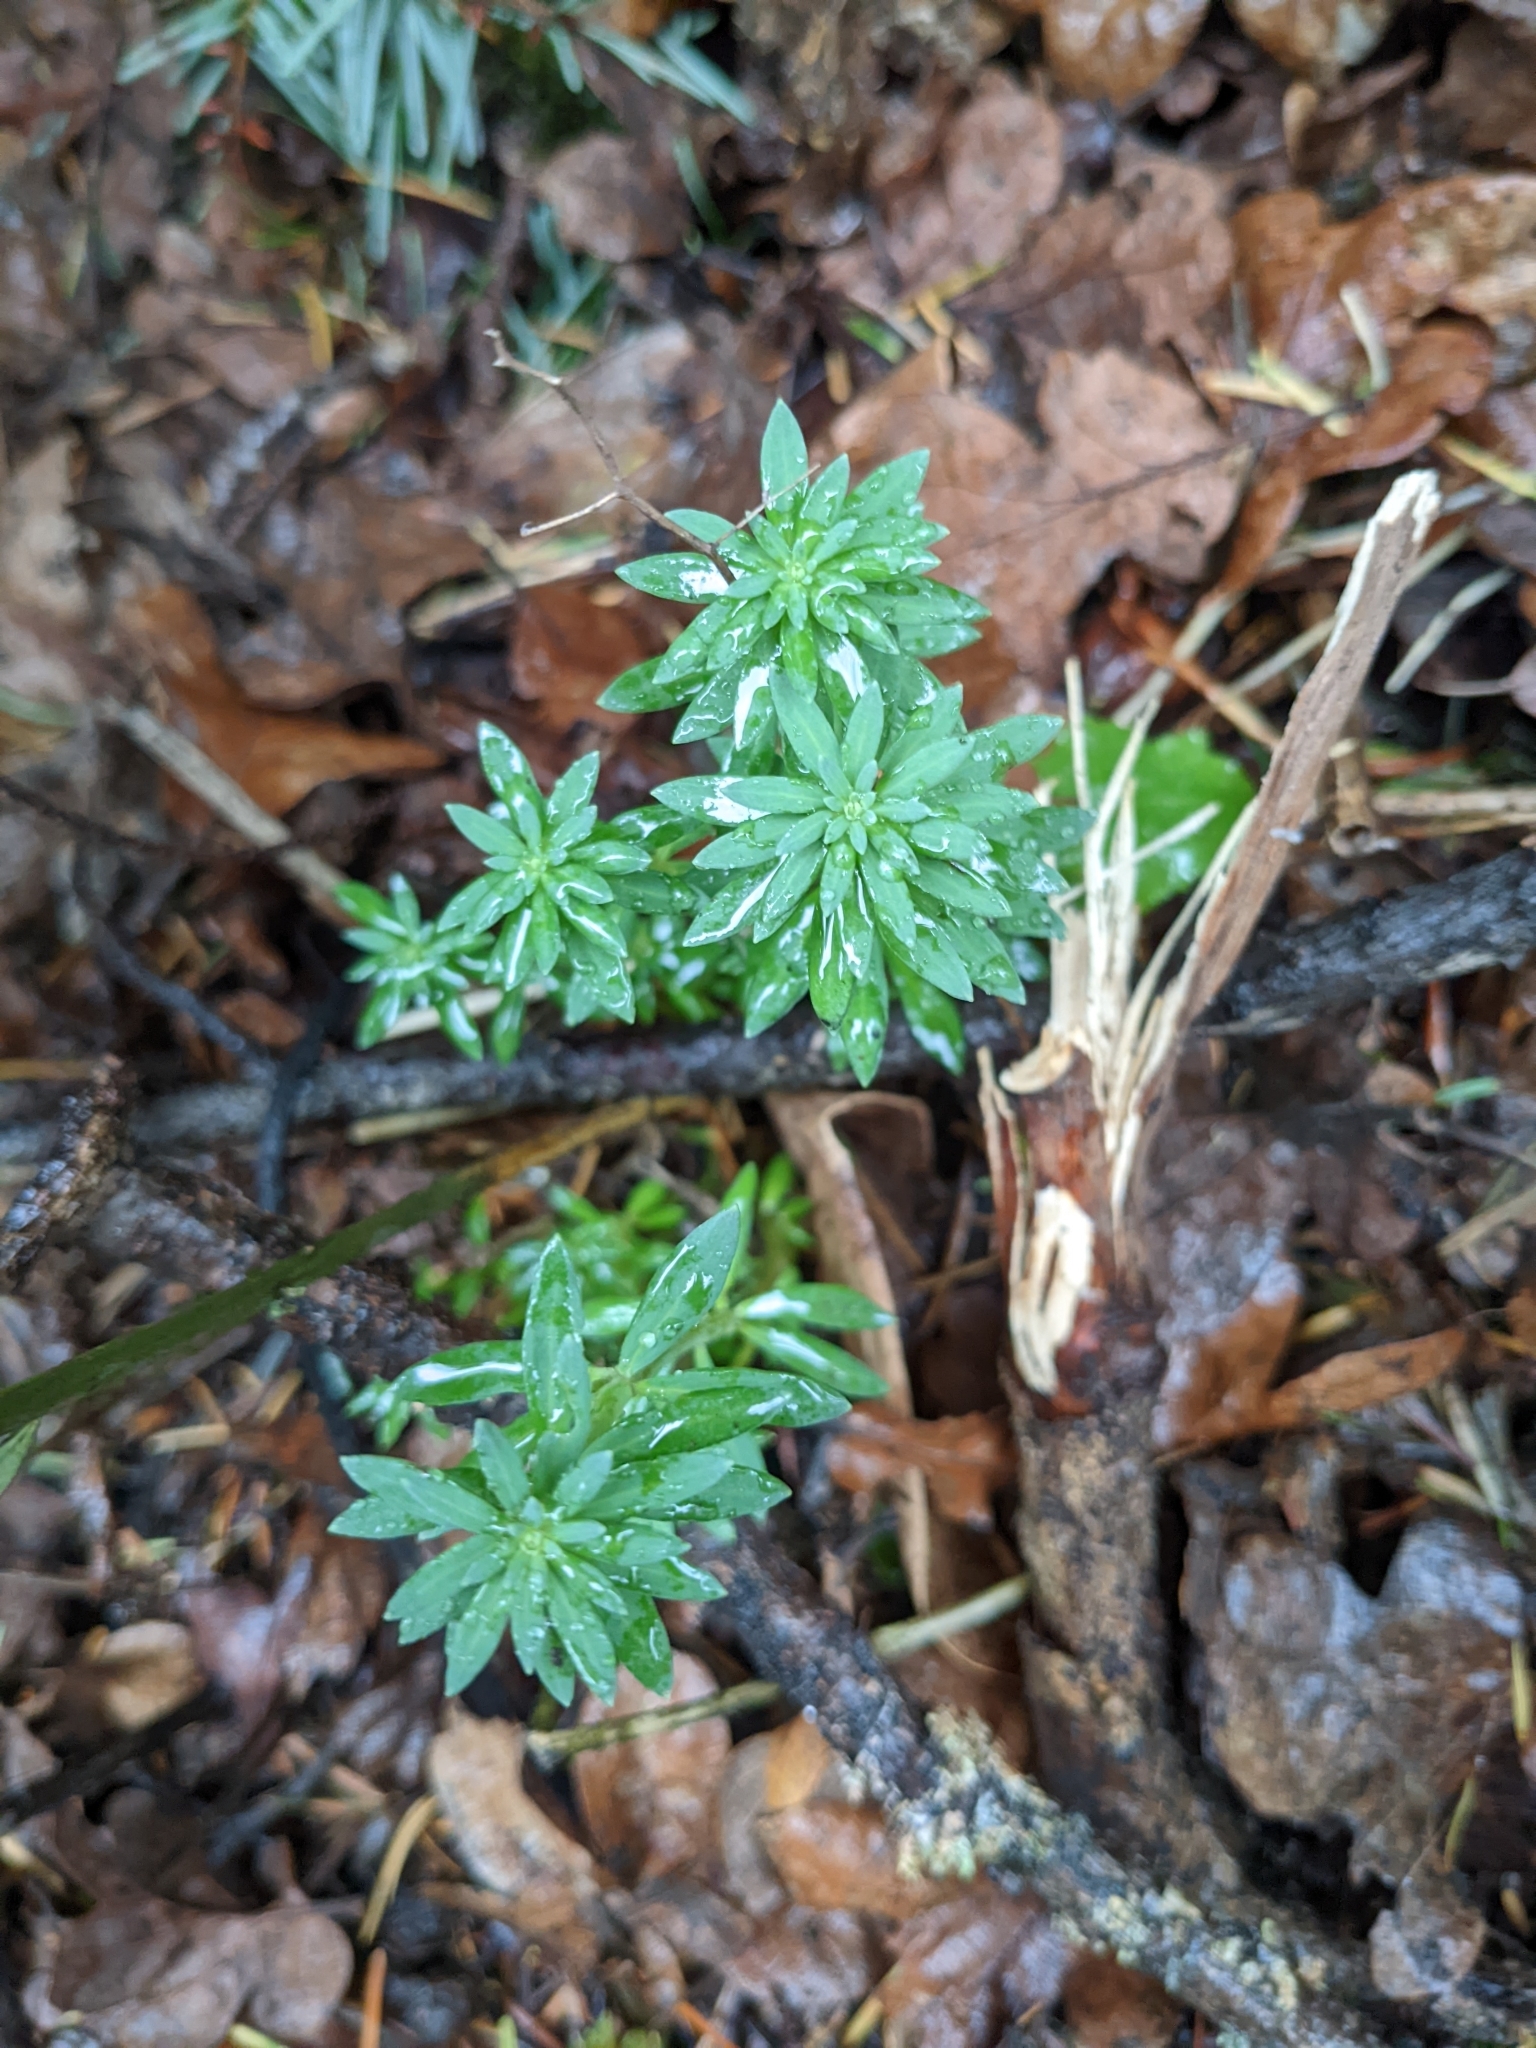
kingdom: Plantae
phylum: Tracheophyta
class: Magnoliopsida
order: Lamiales
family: Plantaginaceae
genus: Linaria
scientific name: Linaria purpurea
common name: Purple toadflax
